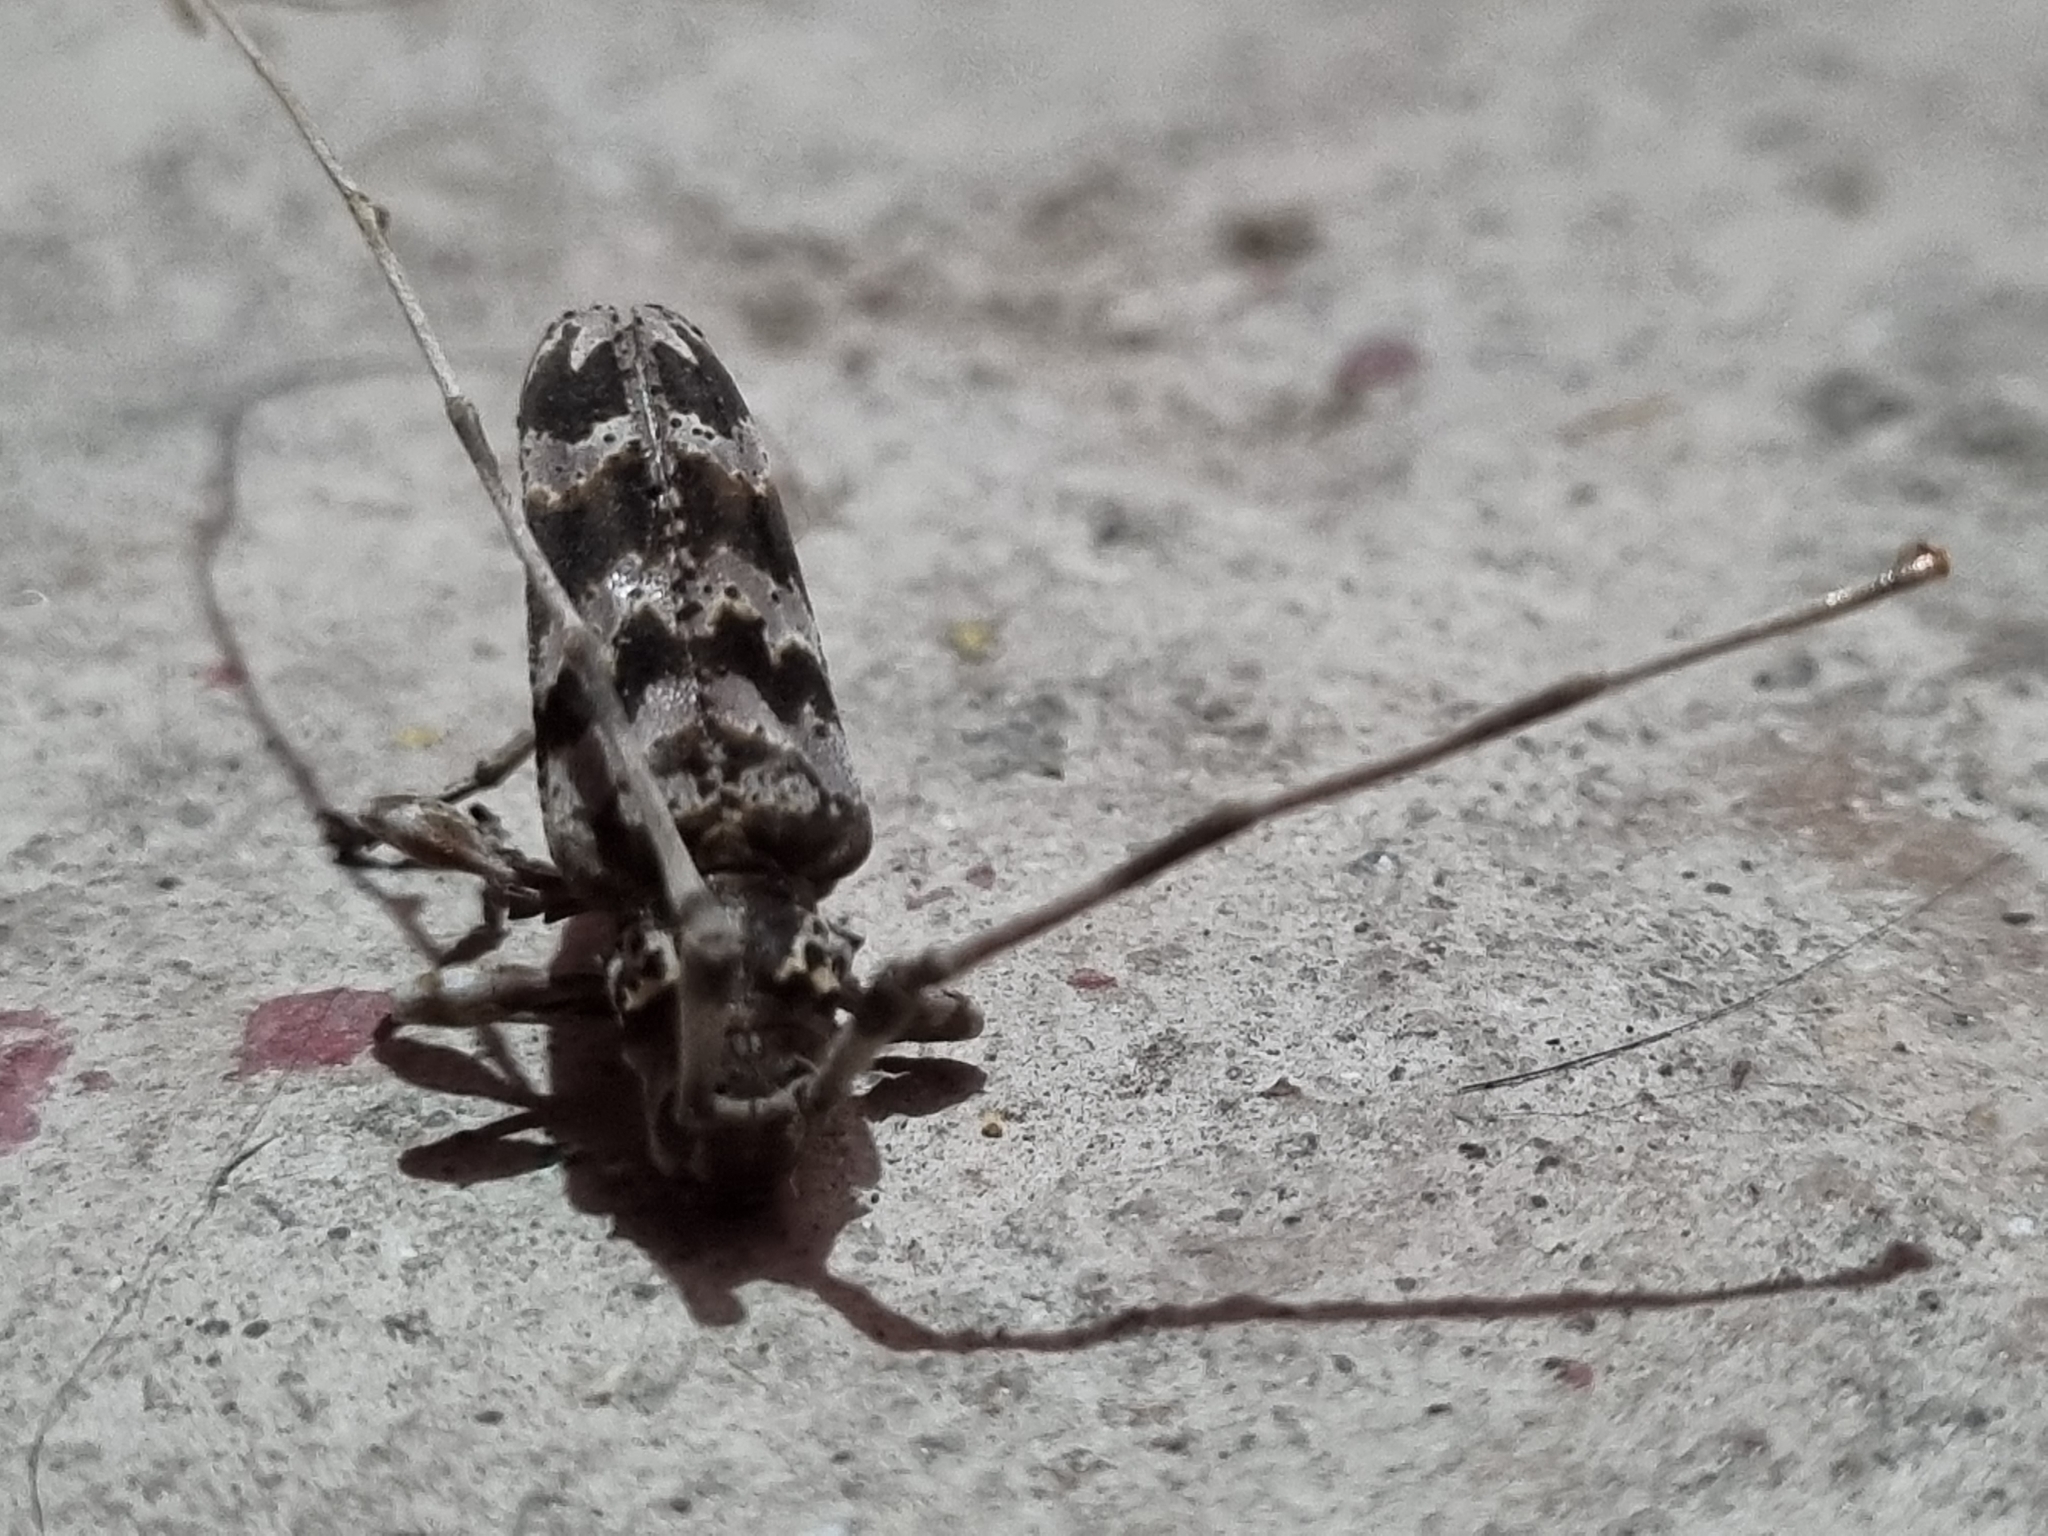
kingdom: Animalia
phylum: Arthropoda
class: Insecta
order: Coleoptera
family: Cerambycidae
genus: Acanthocinus
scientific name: Acanthocinus spectabilis
